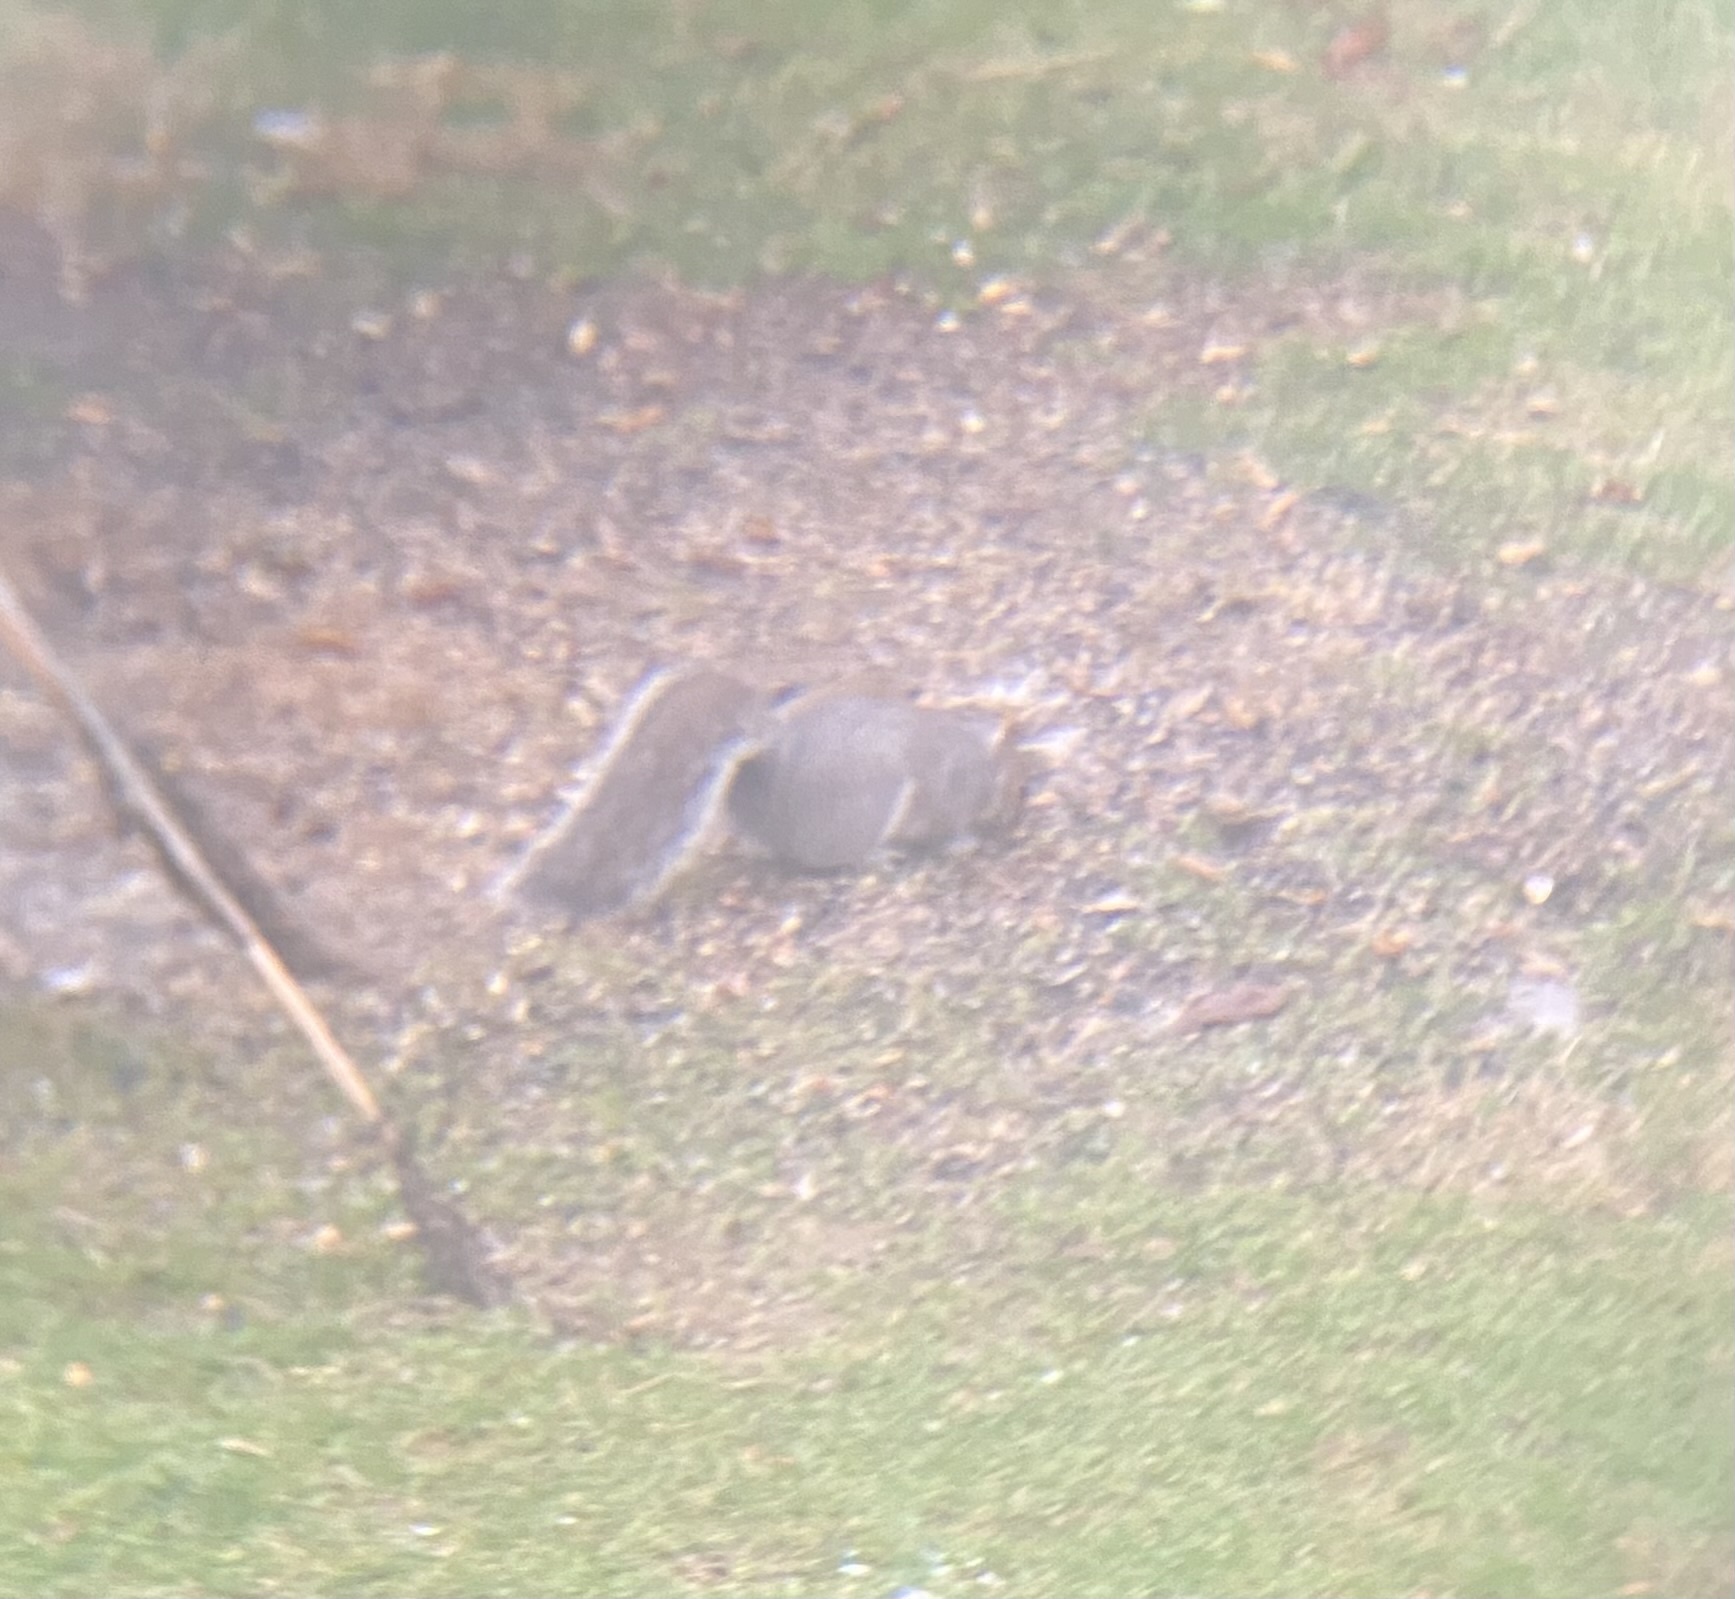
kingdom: Animalia
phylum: Chordata
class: Mammalia
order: Rodentia
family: Sciuridae
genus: Sciurus
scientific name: Sciurus carolinensis
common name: Eastern gray squirrel
